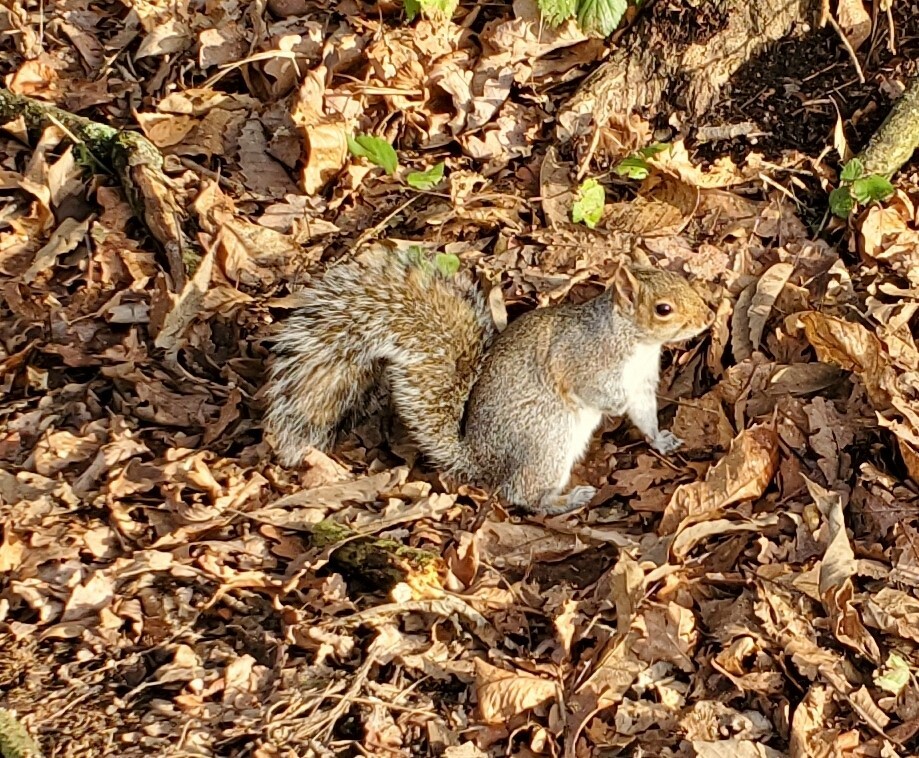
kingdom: Animalia
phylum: Chordata
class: Mammalia
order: Rodentia
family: Sciuridae
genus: Sciurus
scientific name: Sciurus carolinensis
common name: Eastern gray squirrel
